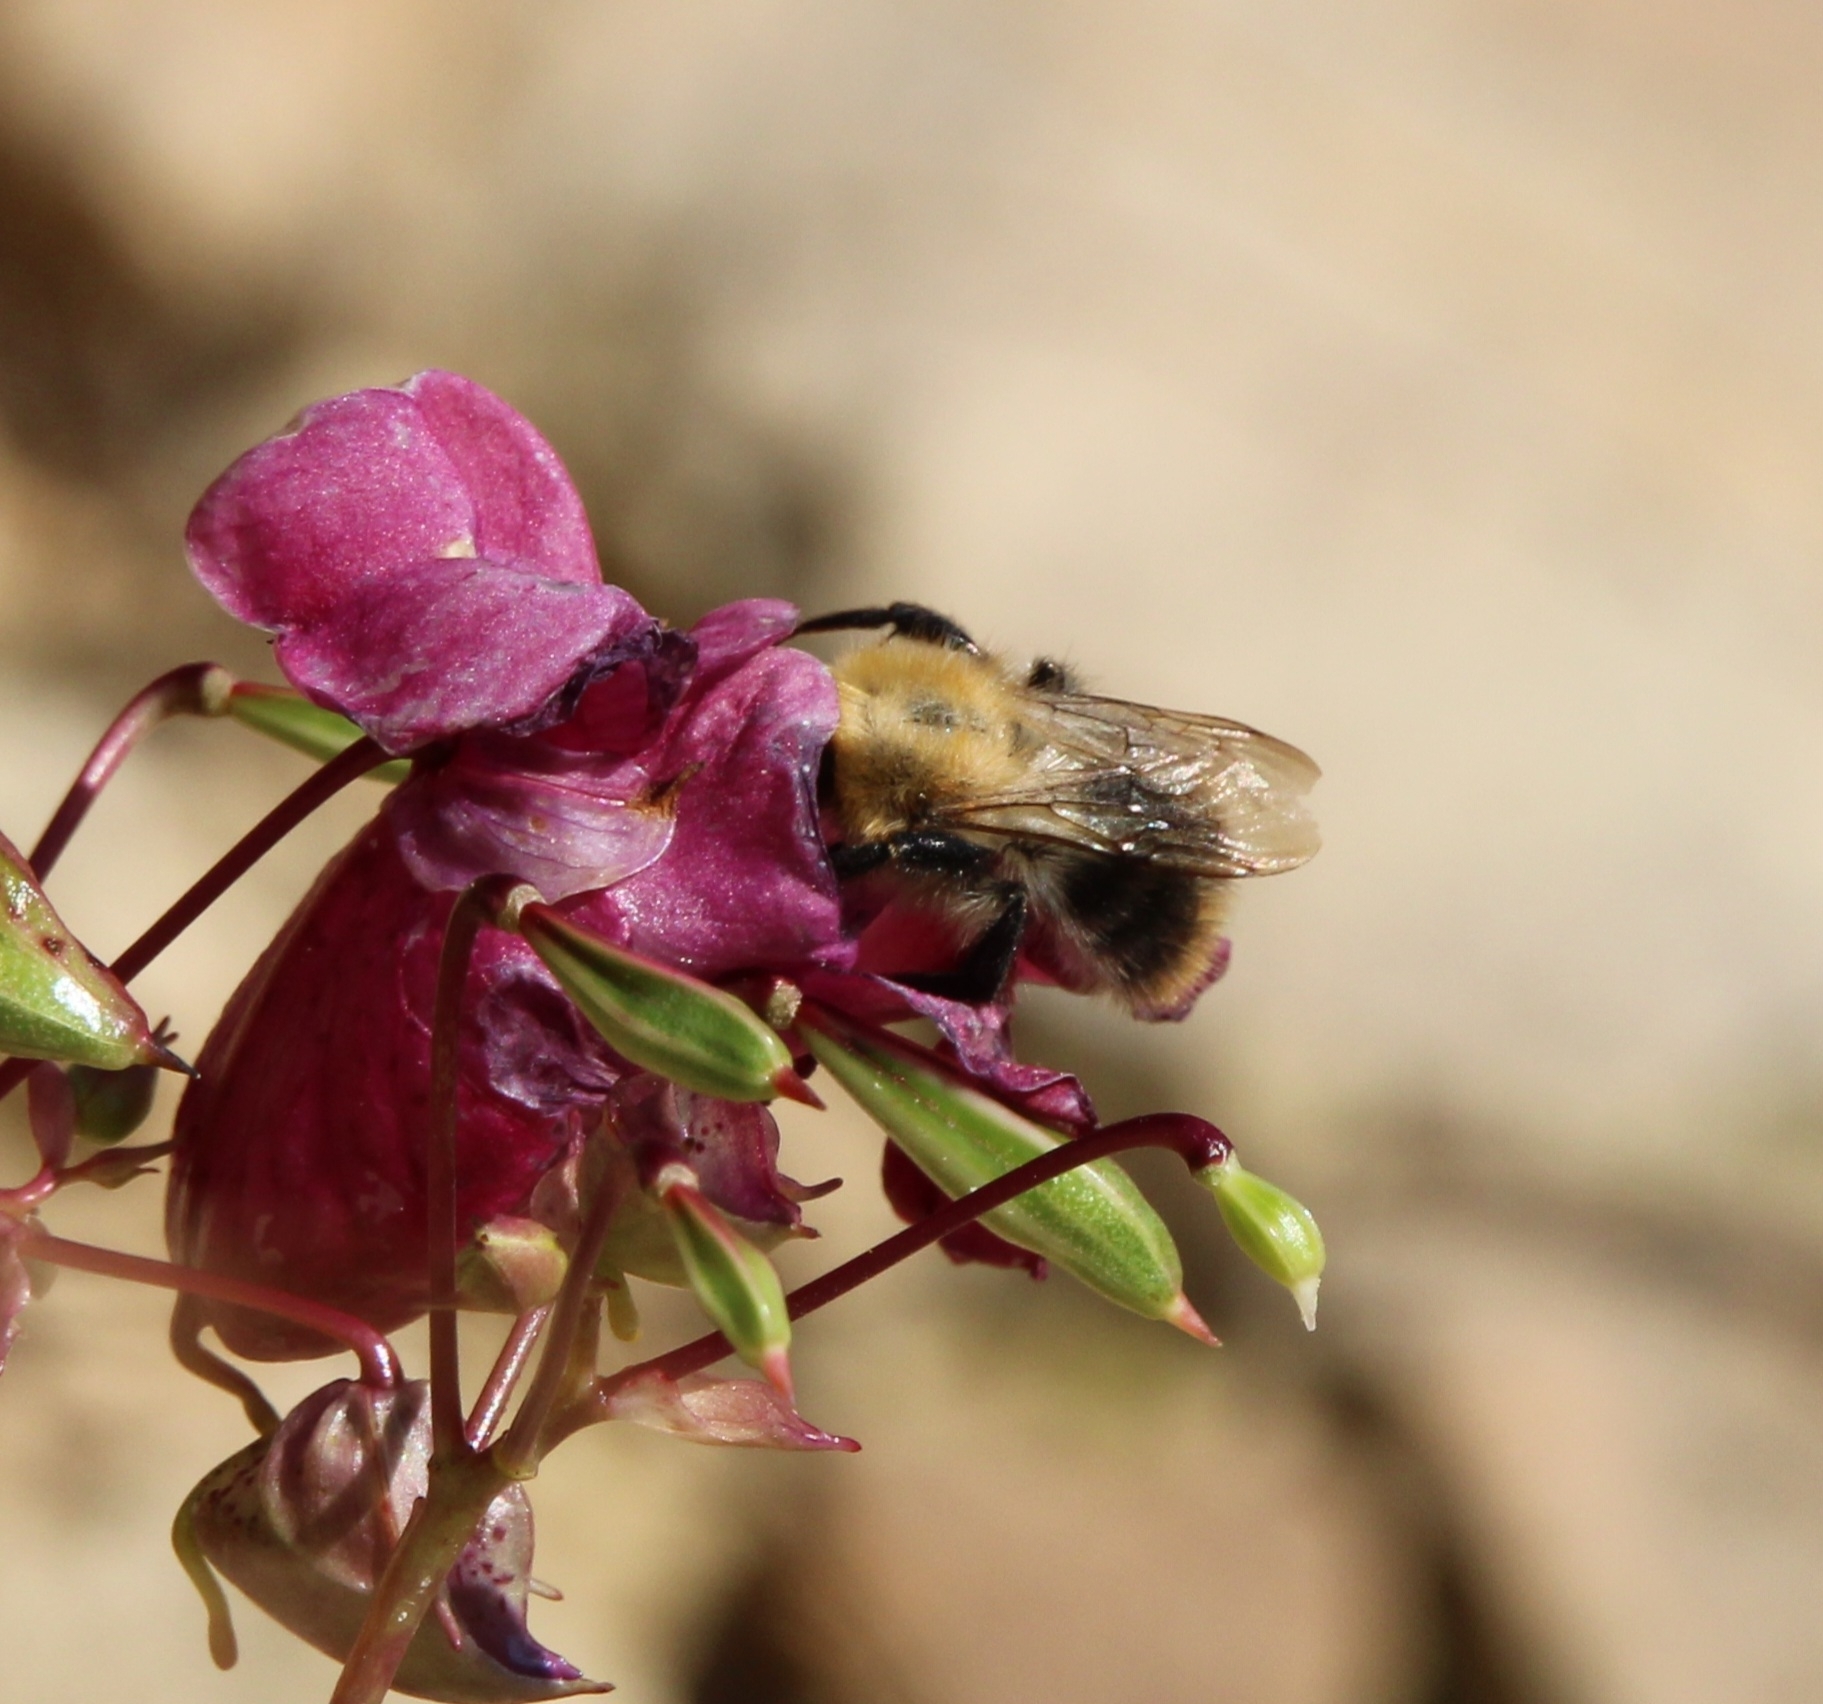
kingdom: Animalia
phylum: Arthropoda
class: Insecta
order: Hymenoptera
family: Apidae
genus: Bombus
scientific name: Bombus pascuorum
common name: Common carder bee
